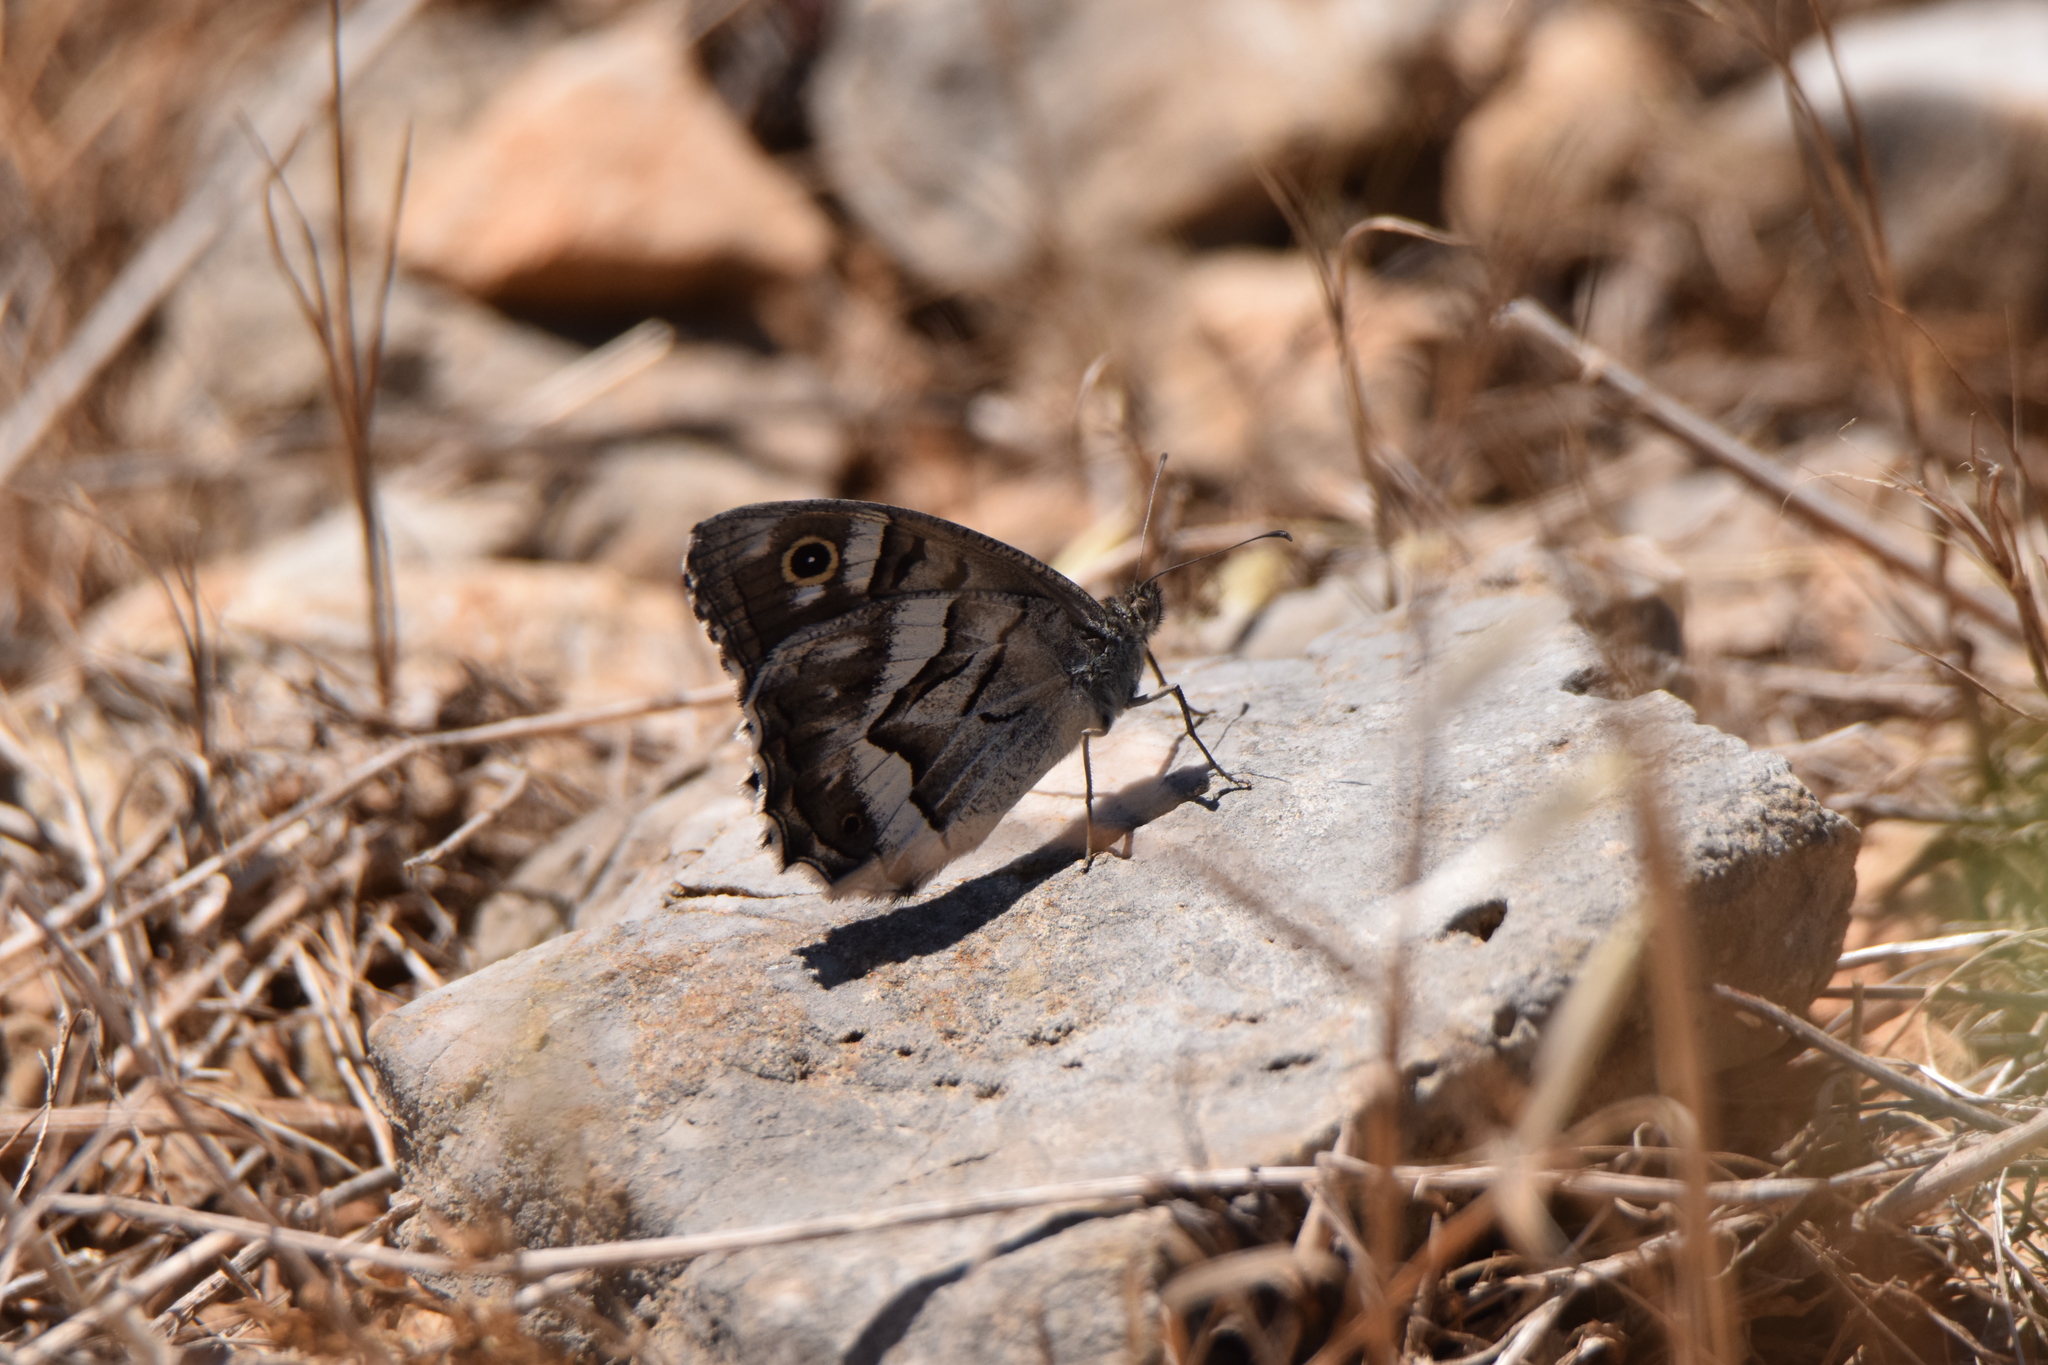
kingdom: Animalia
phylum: Arthropoda
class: Insecta
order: Lepidoptera
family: Nymphalidae
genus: Hipparchia
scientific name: Hipparchia fidia
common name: Striped grayling
